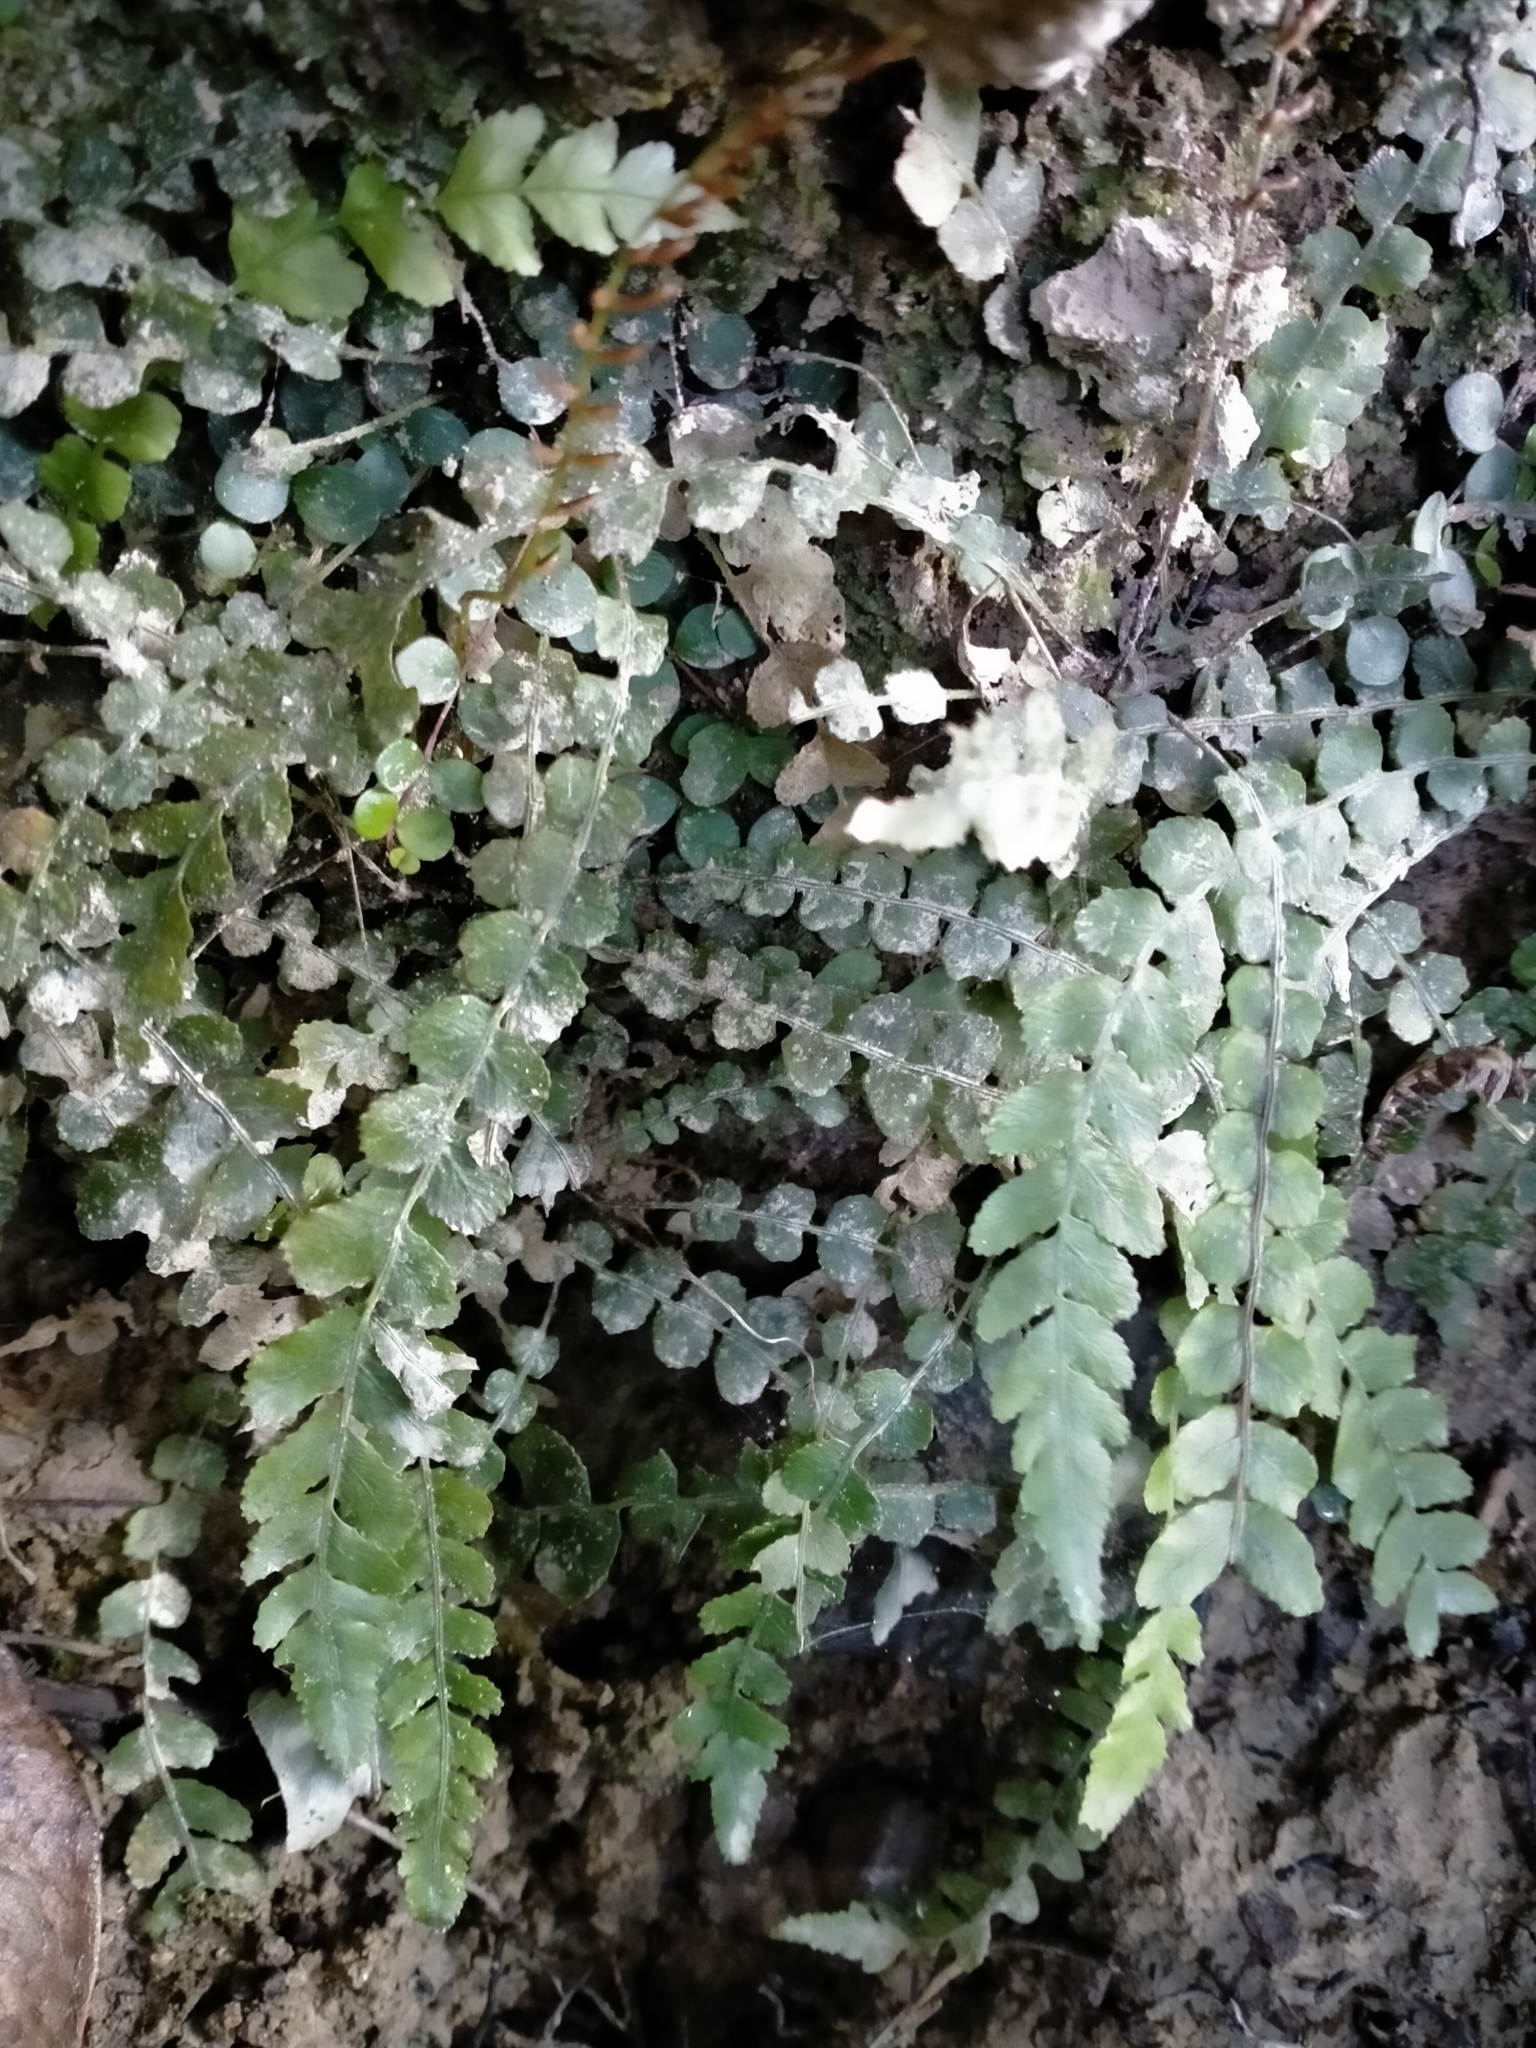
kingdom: Plantae
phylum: Tracheophyta
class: Polypodiopsida
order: Polypodiales
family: Blechnaceae
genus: Austroblechnum
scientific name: Austroblechnum membranaceum
